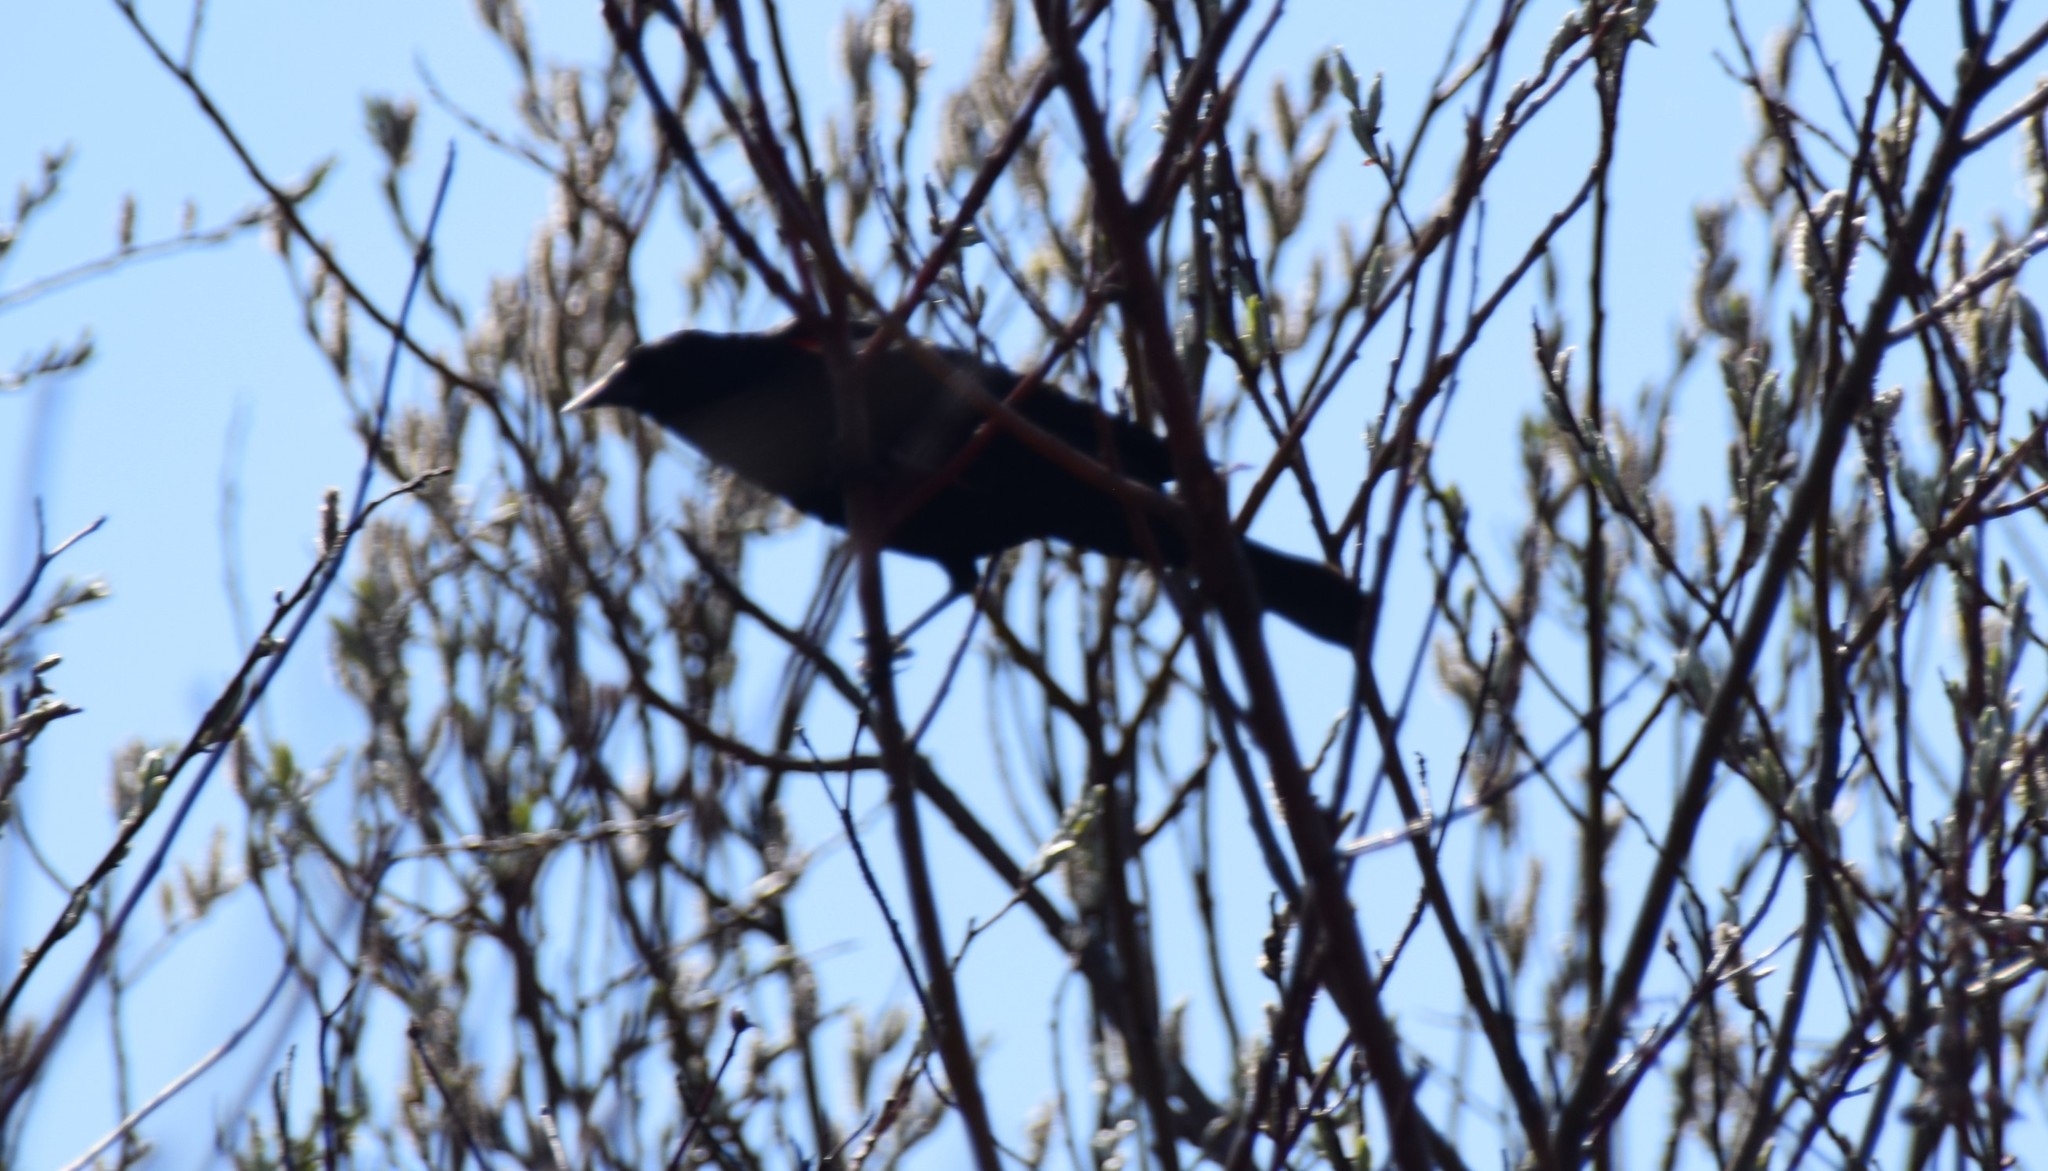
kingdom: Animalia
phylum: Chordata
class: Aves
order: Passeriformes
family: Icteridae
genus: Agelaius
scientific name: Agelaius phoeniceus
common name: Red-winged blackbird
